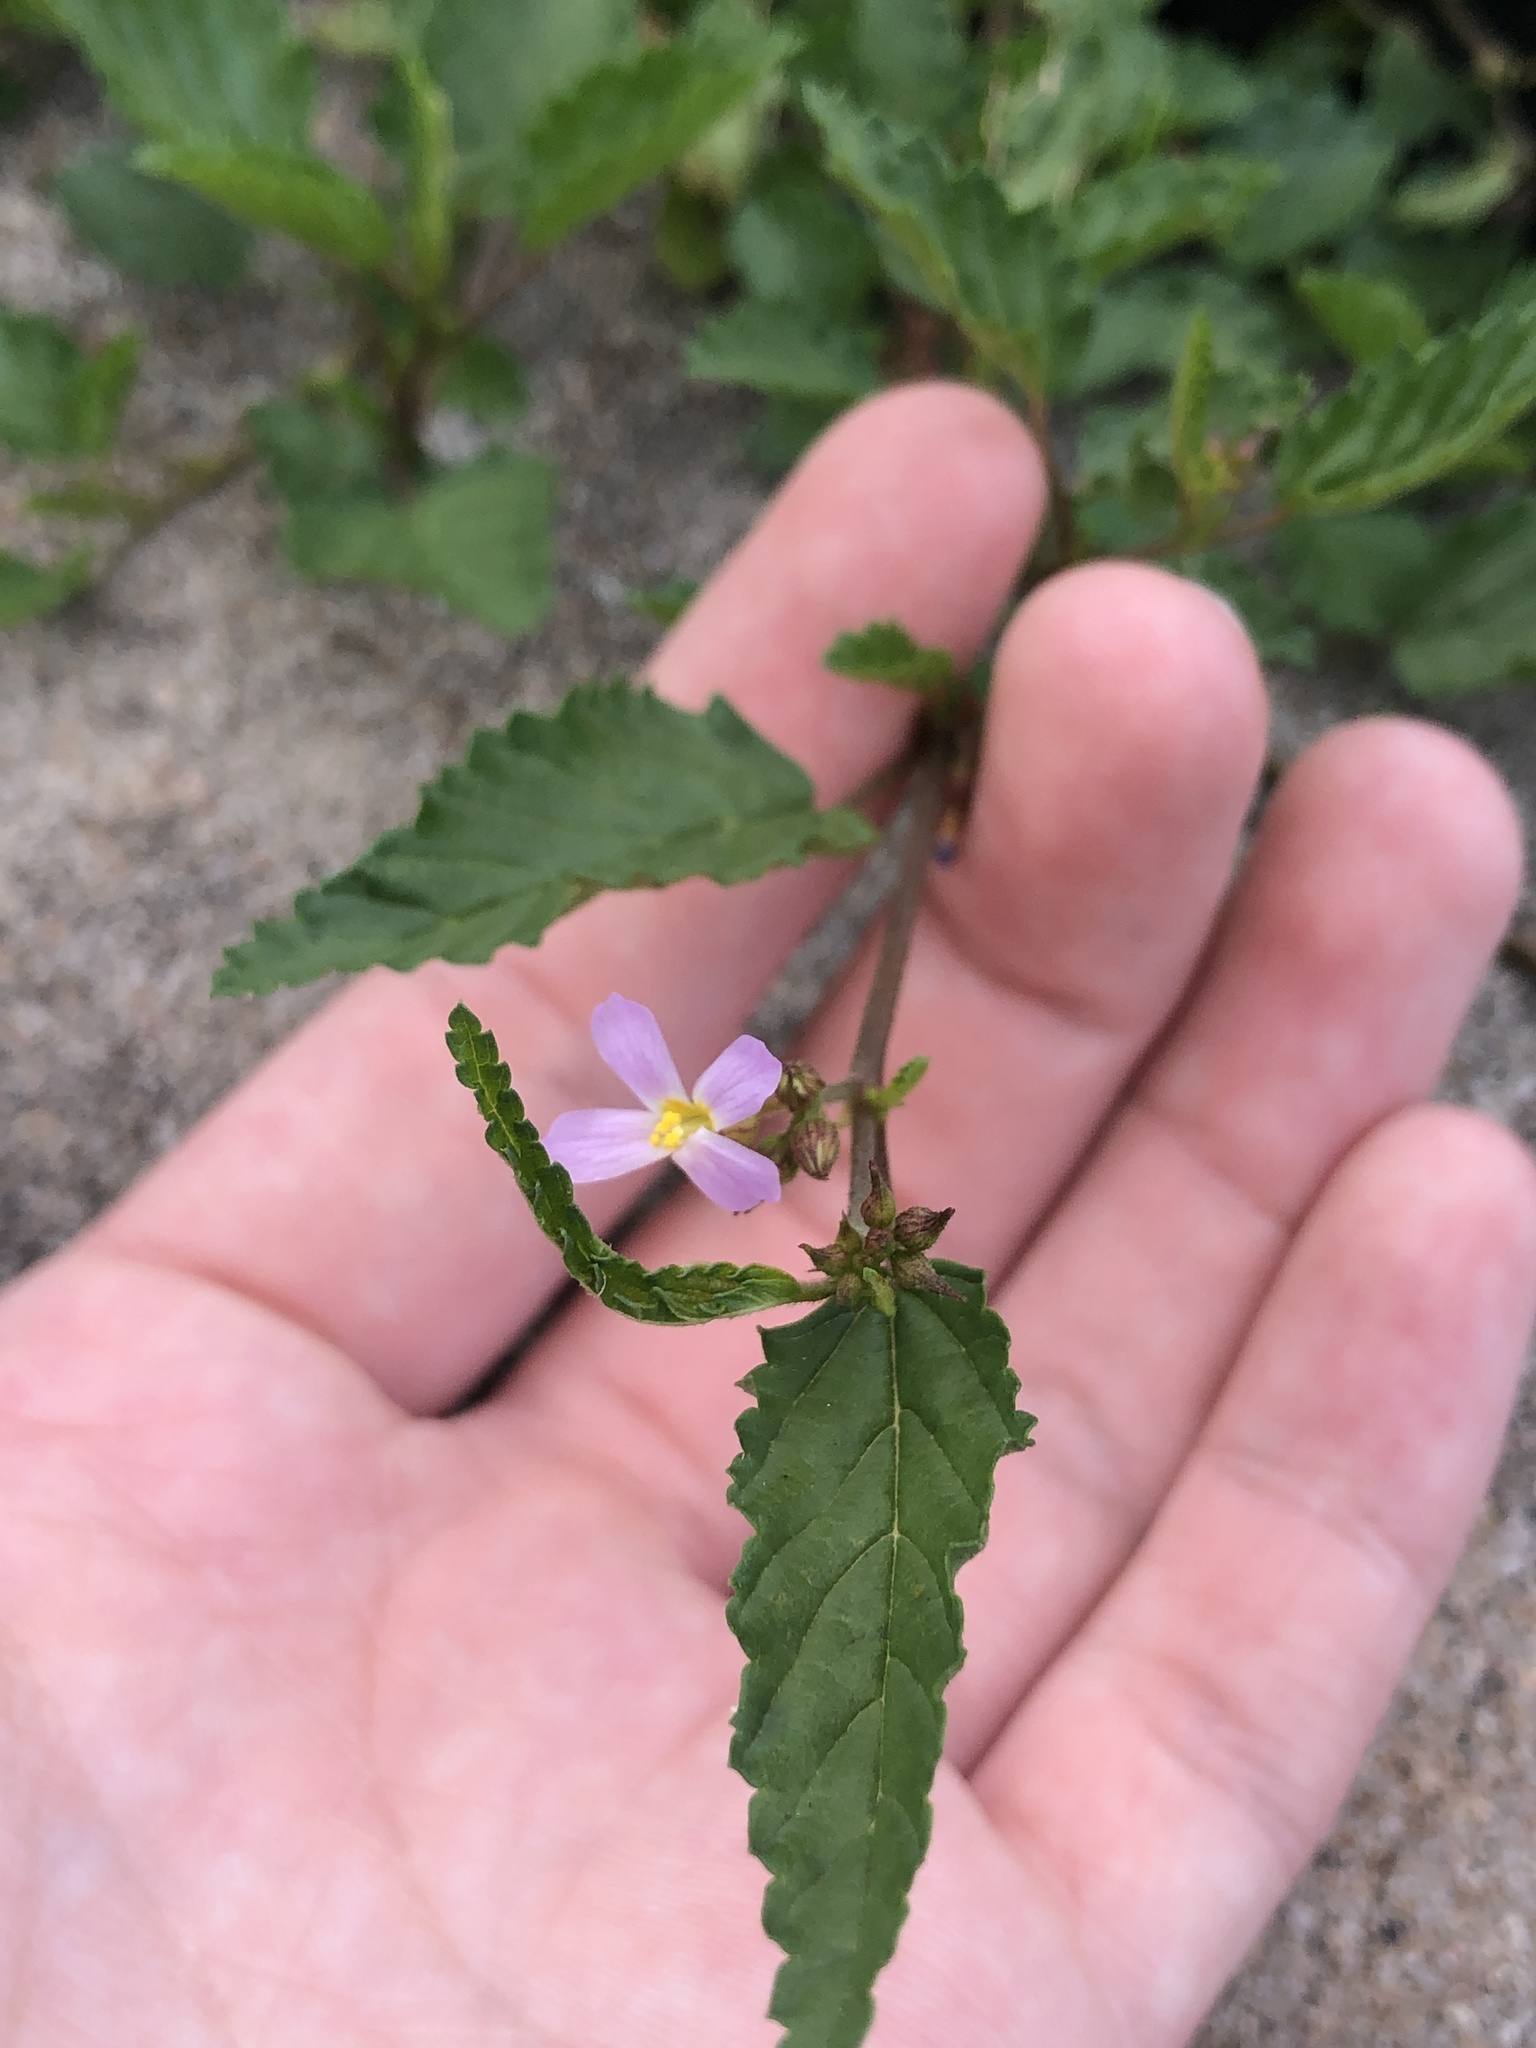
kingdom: Plantae
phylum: Tracheophyta
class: Magnoliopsida
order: Malvales
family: Malvaceae
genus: Melochia
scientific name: Melochia pyramidata
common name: Pyramidflower
